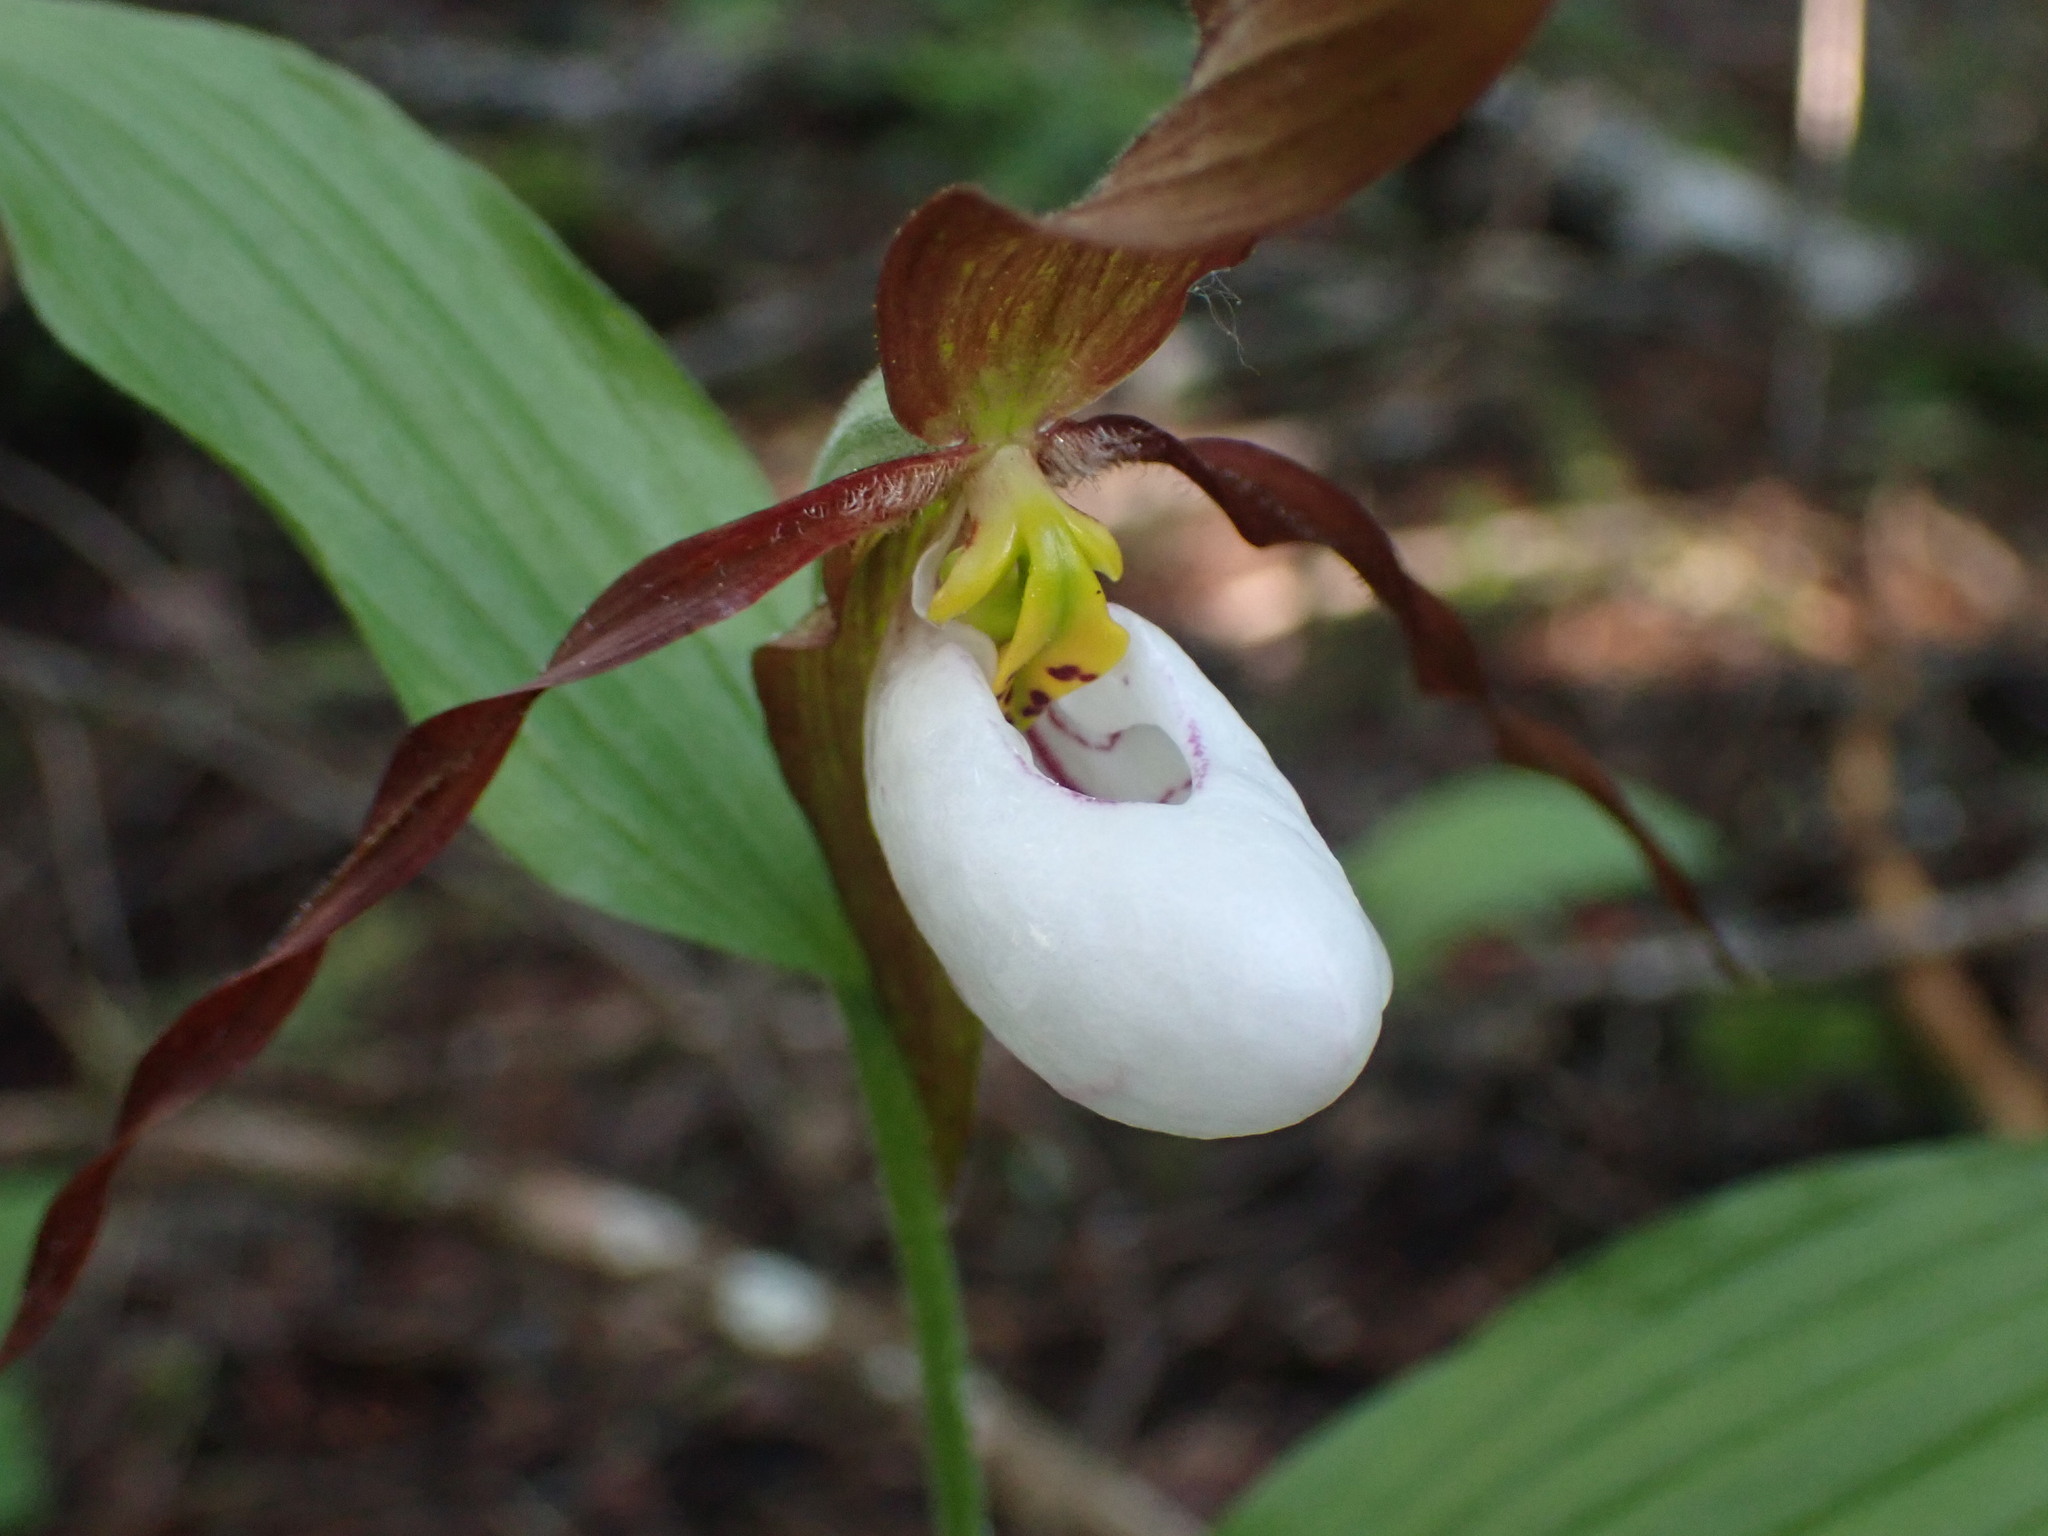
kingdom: Plantae
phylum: Tracheophyta
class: Liliopsida
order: Asparagales
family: Orchidaceae
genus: Cypripedium
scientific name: Cypripedium montanum
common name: Mountain lady's-slipper
